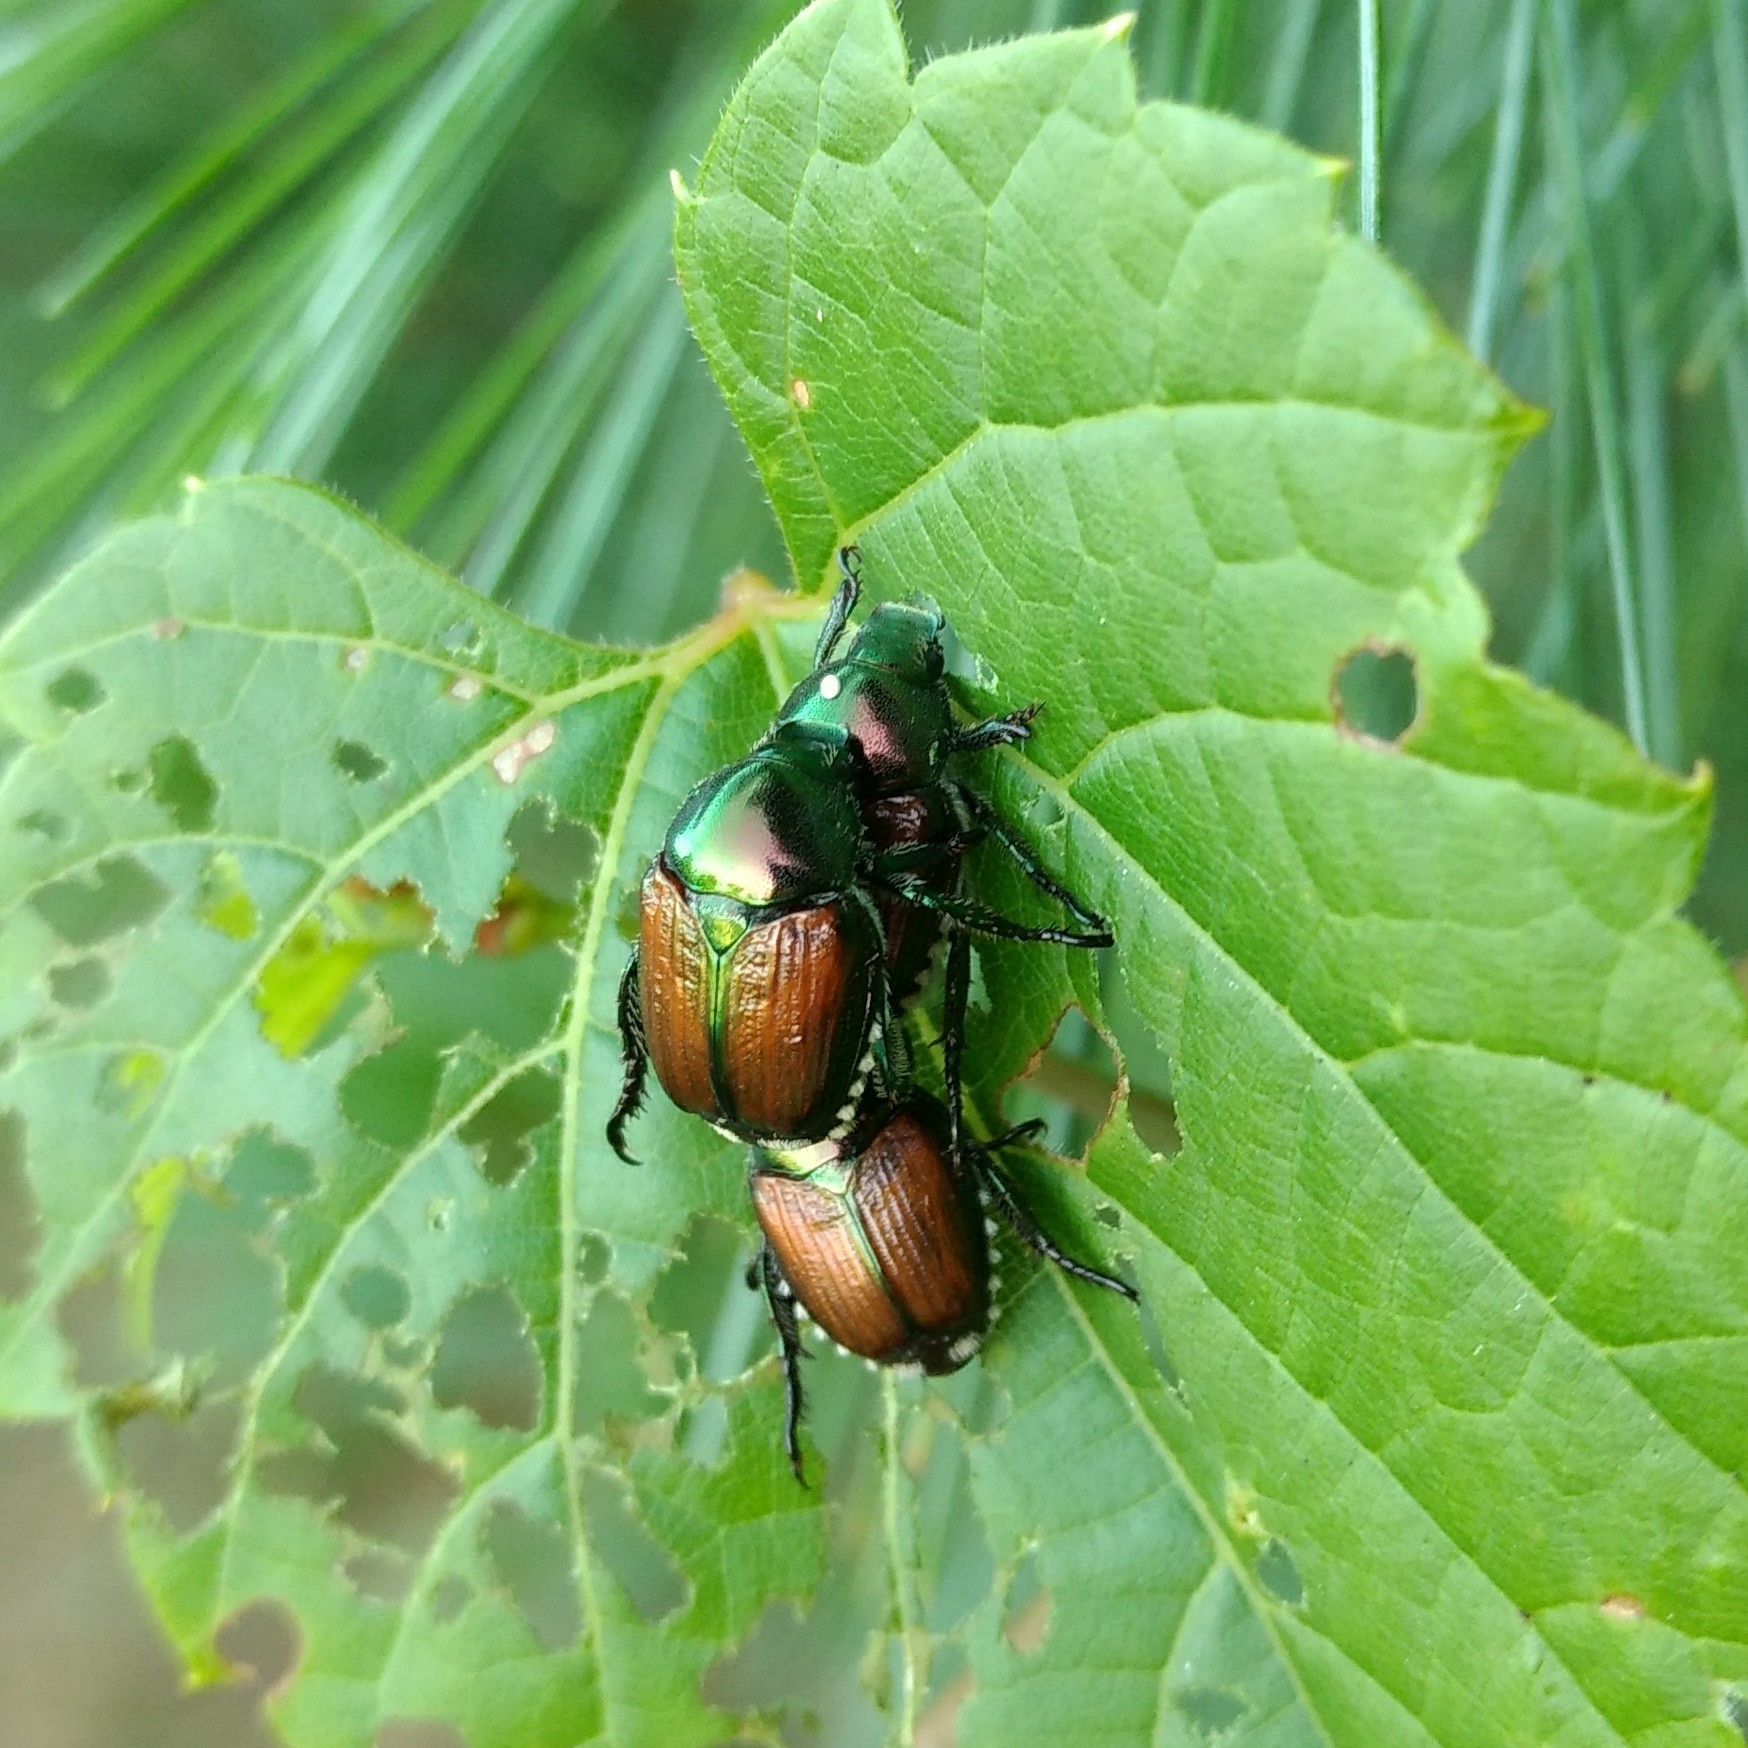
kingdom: Animalia
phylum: Arthropoda
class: Insecta
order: Coleoptera
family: Scarabaeidae
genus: Popillia
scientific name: Popillia japonica
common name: Japanese beetle
